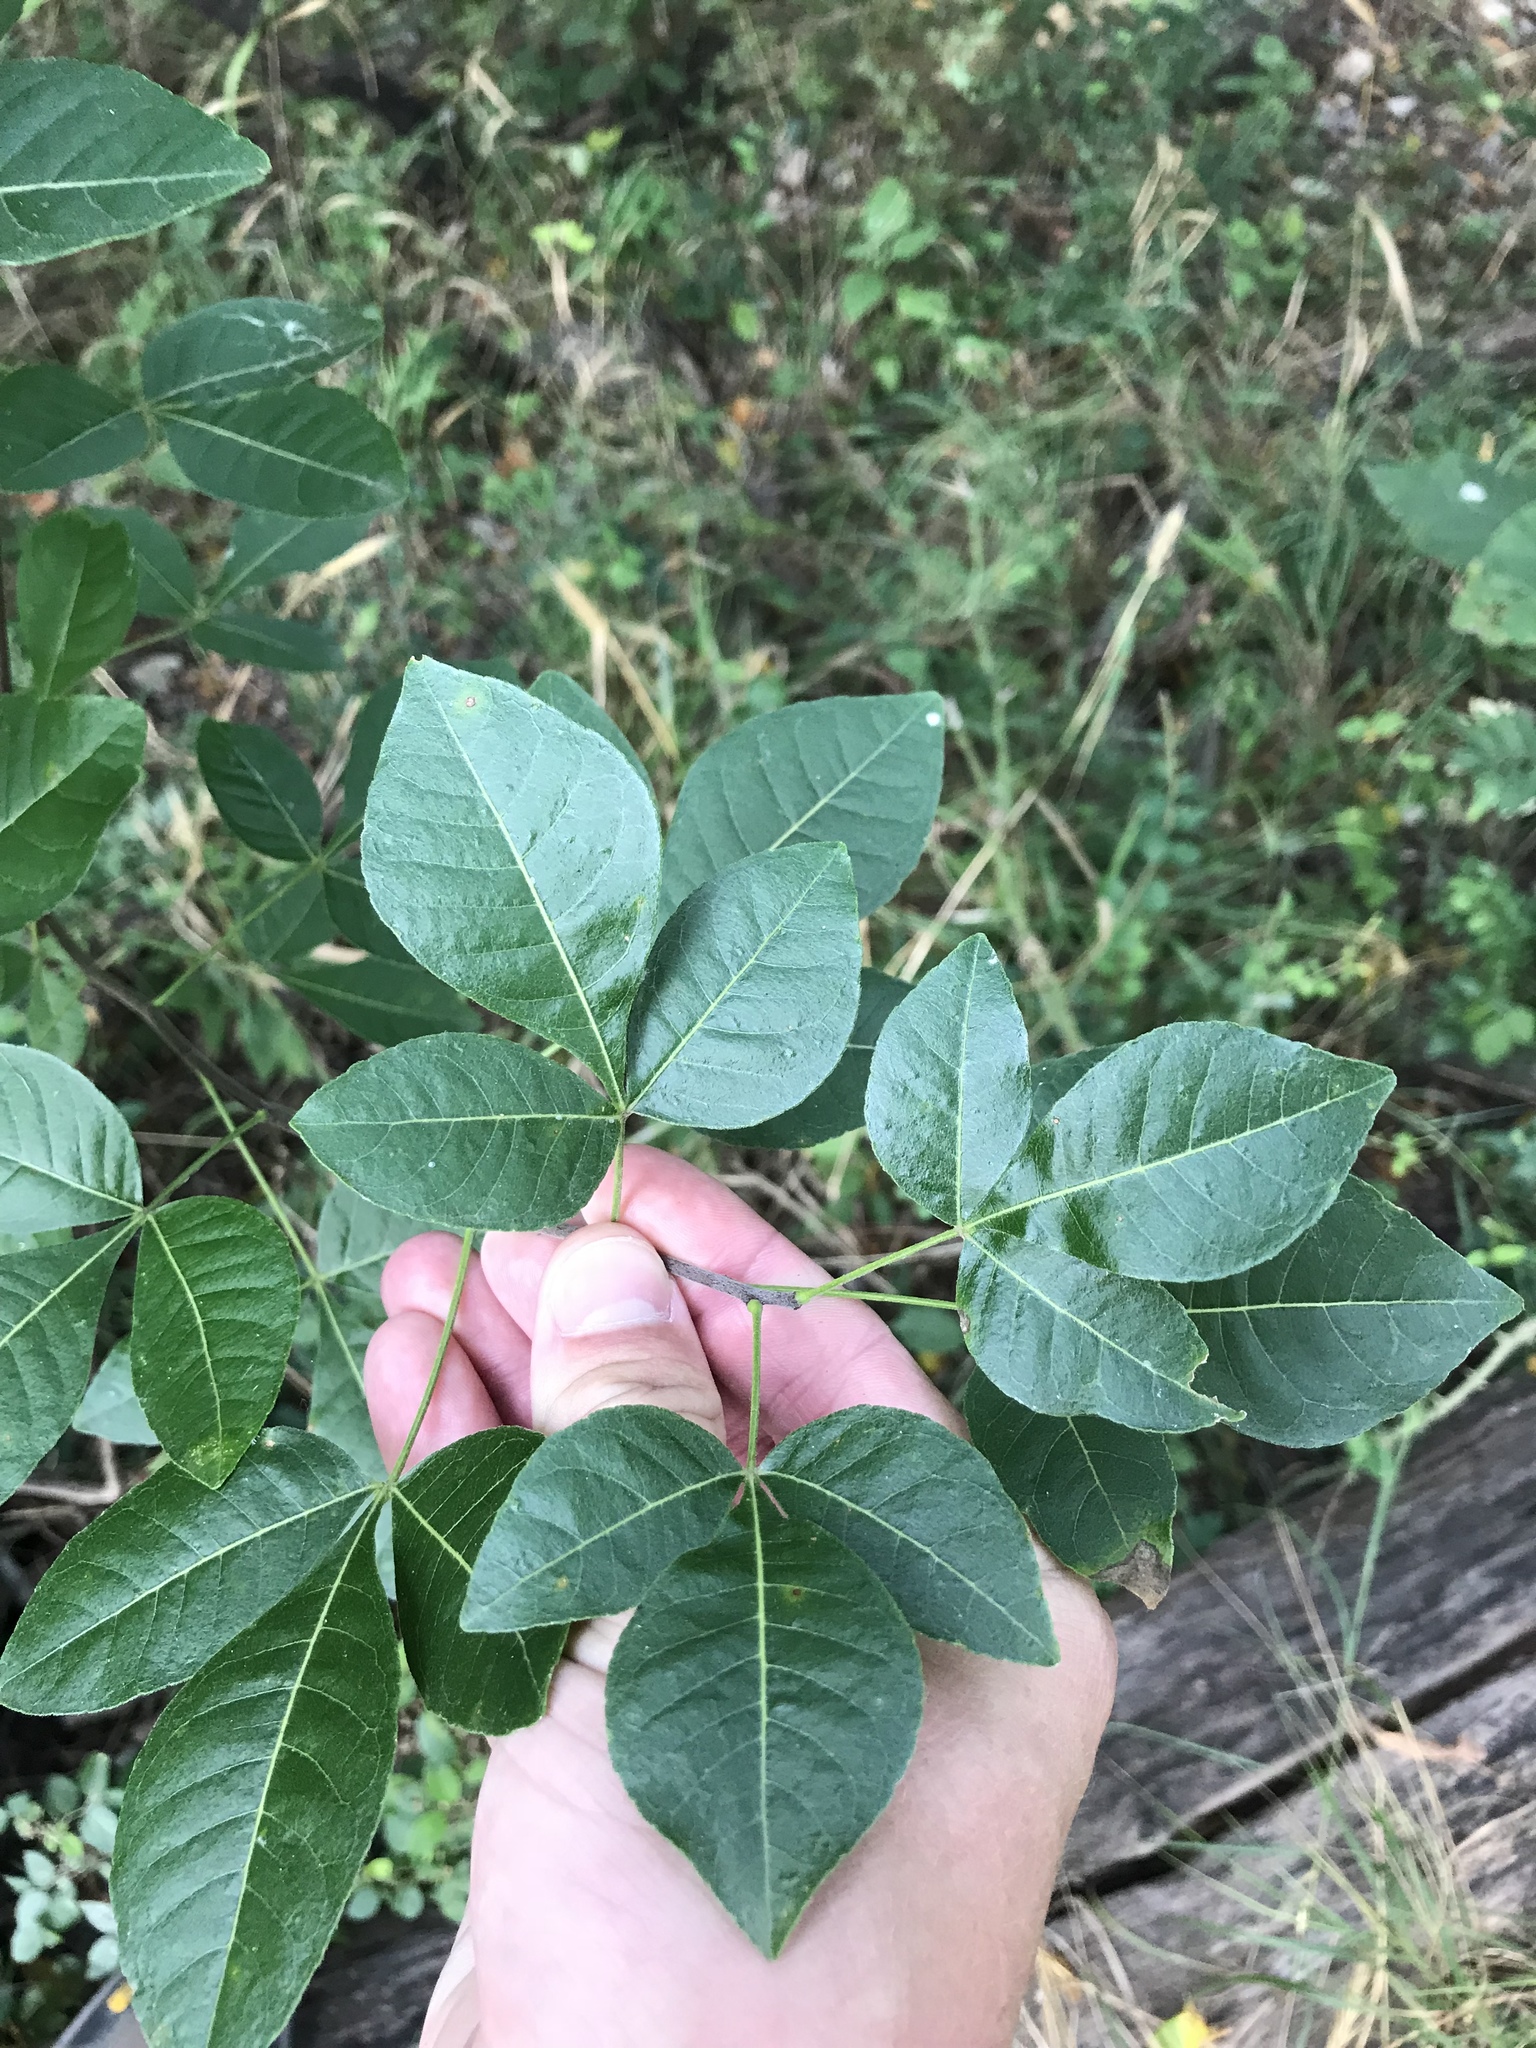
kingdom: Plantae
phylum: Tracheophyta
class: Magnoliopsida
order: Sapindales
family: Rutaceae
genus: Ptelea
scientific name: Ptelea trifoliata
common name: Common hop-tree
